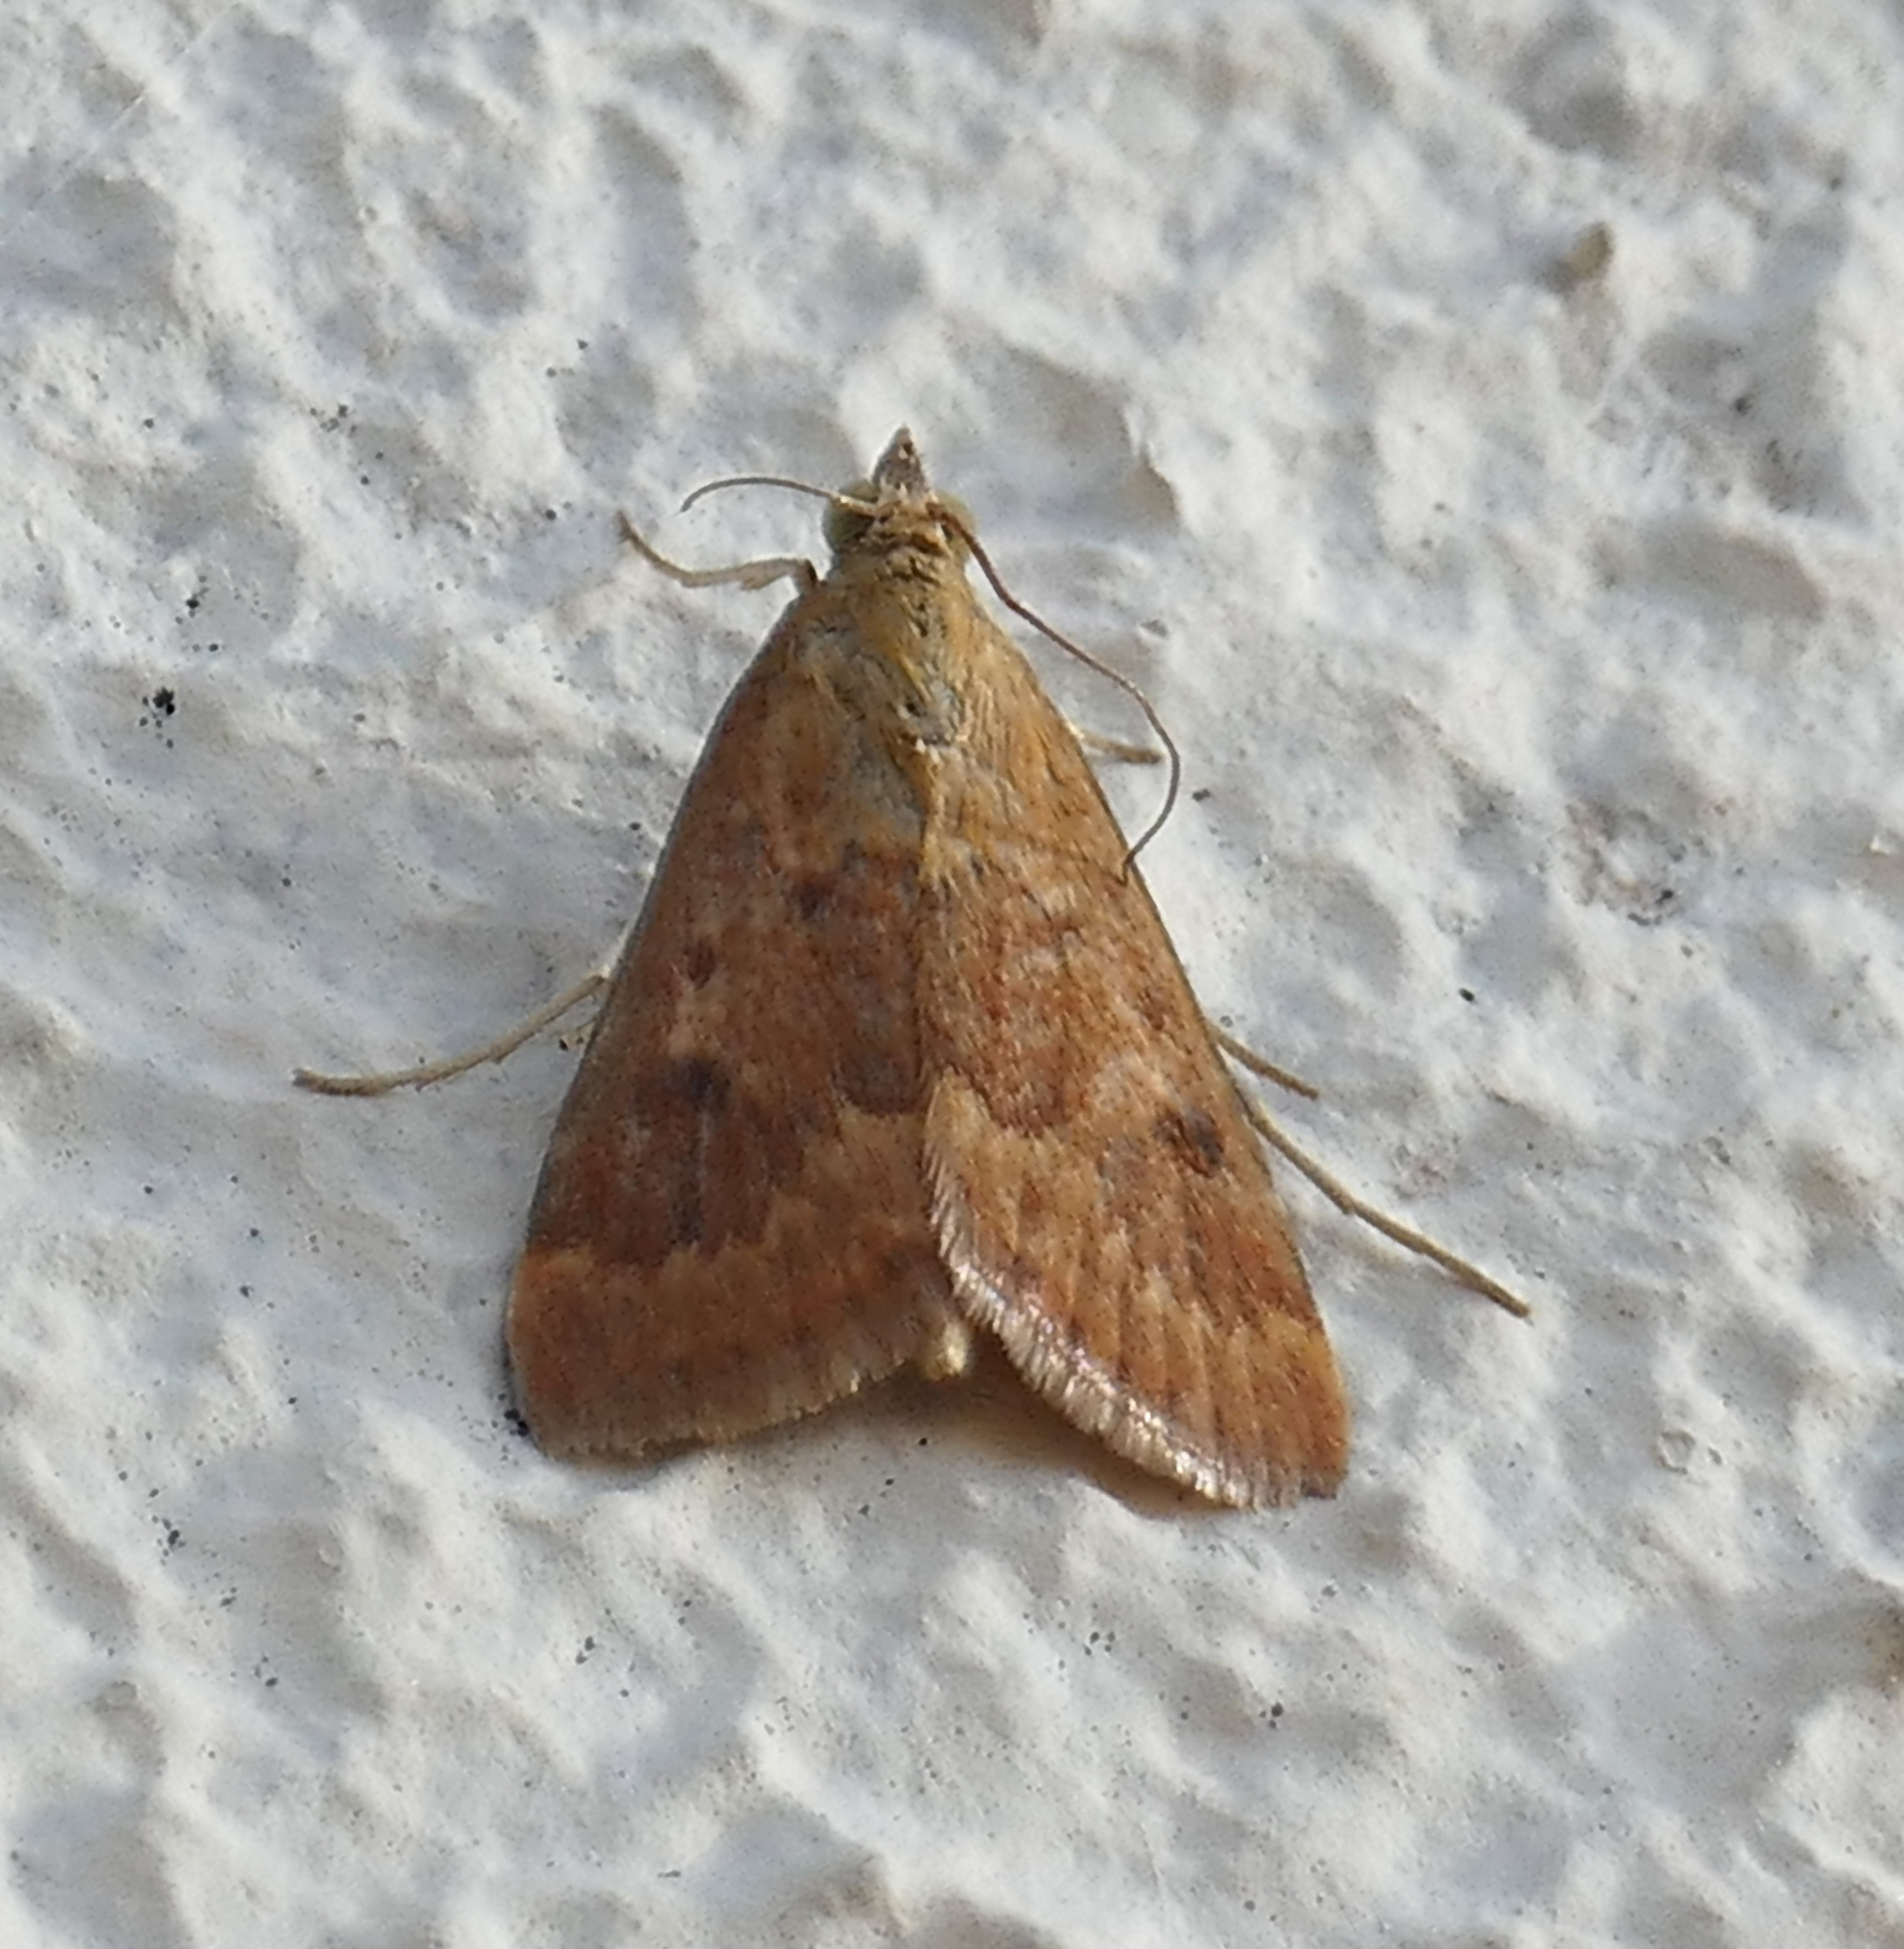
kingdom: Animalia
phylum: Arthropoda
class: Insecta
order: Lepidoptera
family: Crambidae
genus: Achyra
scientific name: Achyra rantalis
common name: Garden webworm
